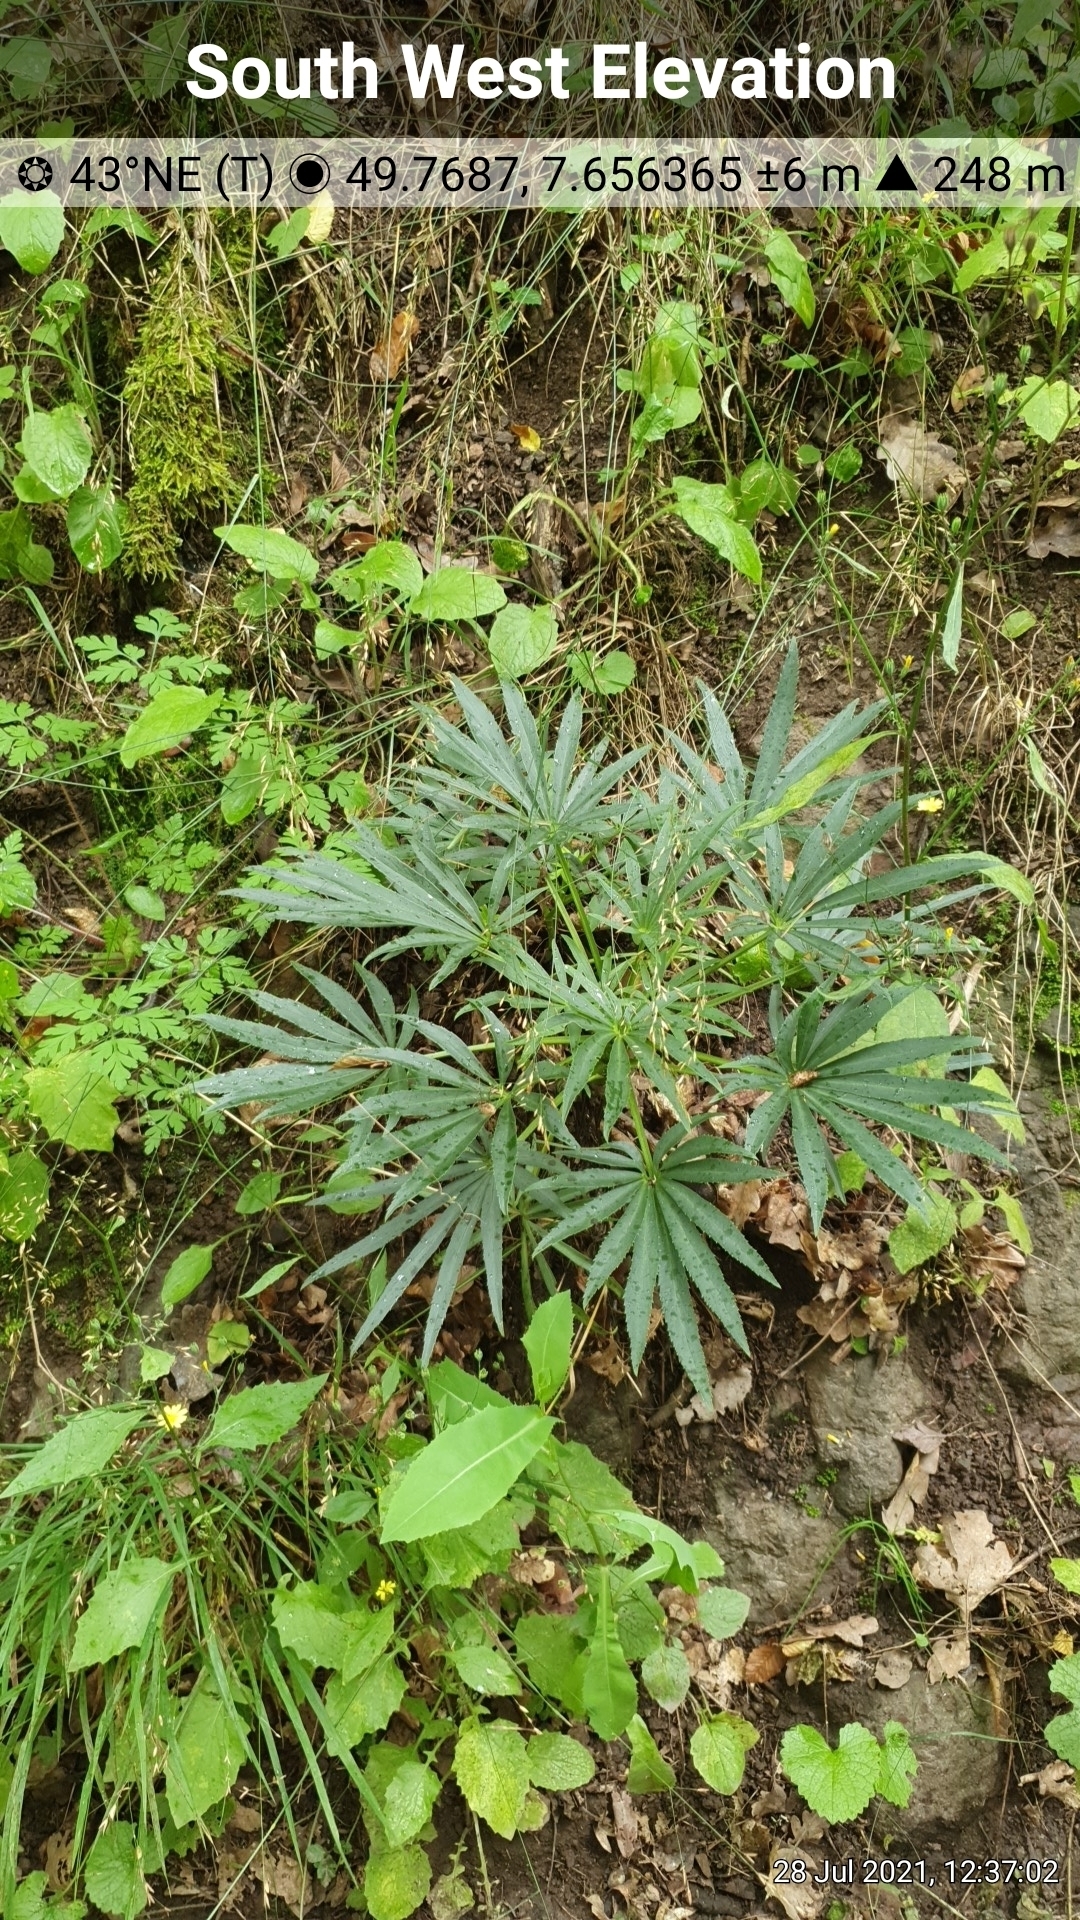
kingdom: Plantae
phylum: Tracheophyta
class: Magnoliopsida
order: Ranunculales
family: Ranunculaceae
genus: Helleborus
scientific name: Helleborus foetidus
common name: Stinking hellebore
